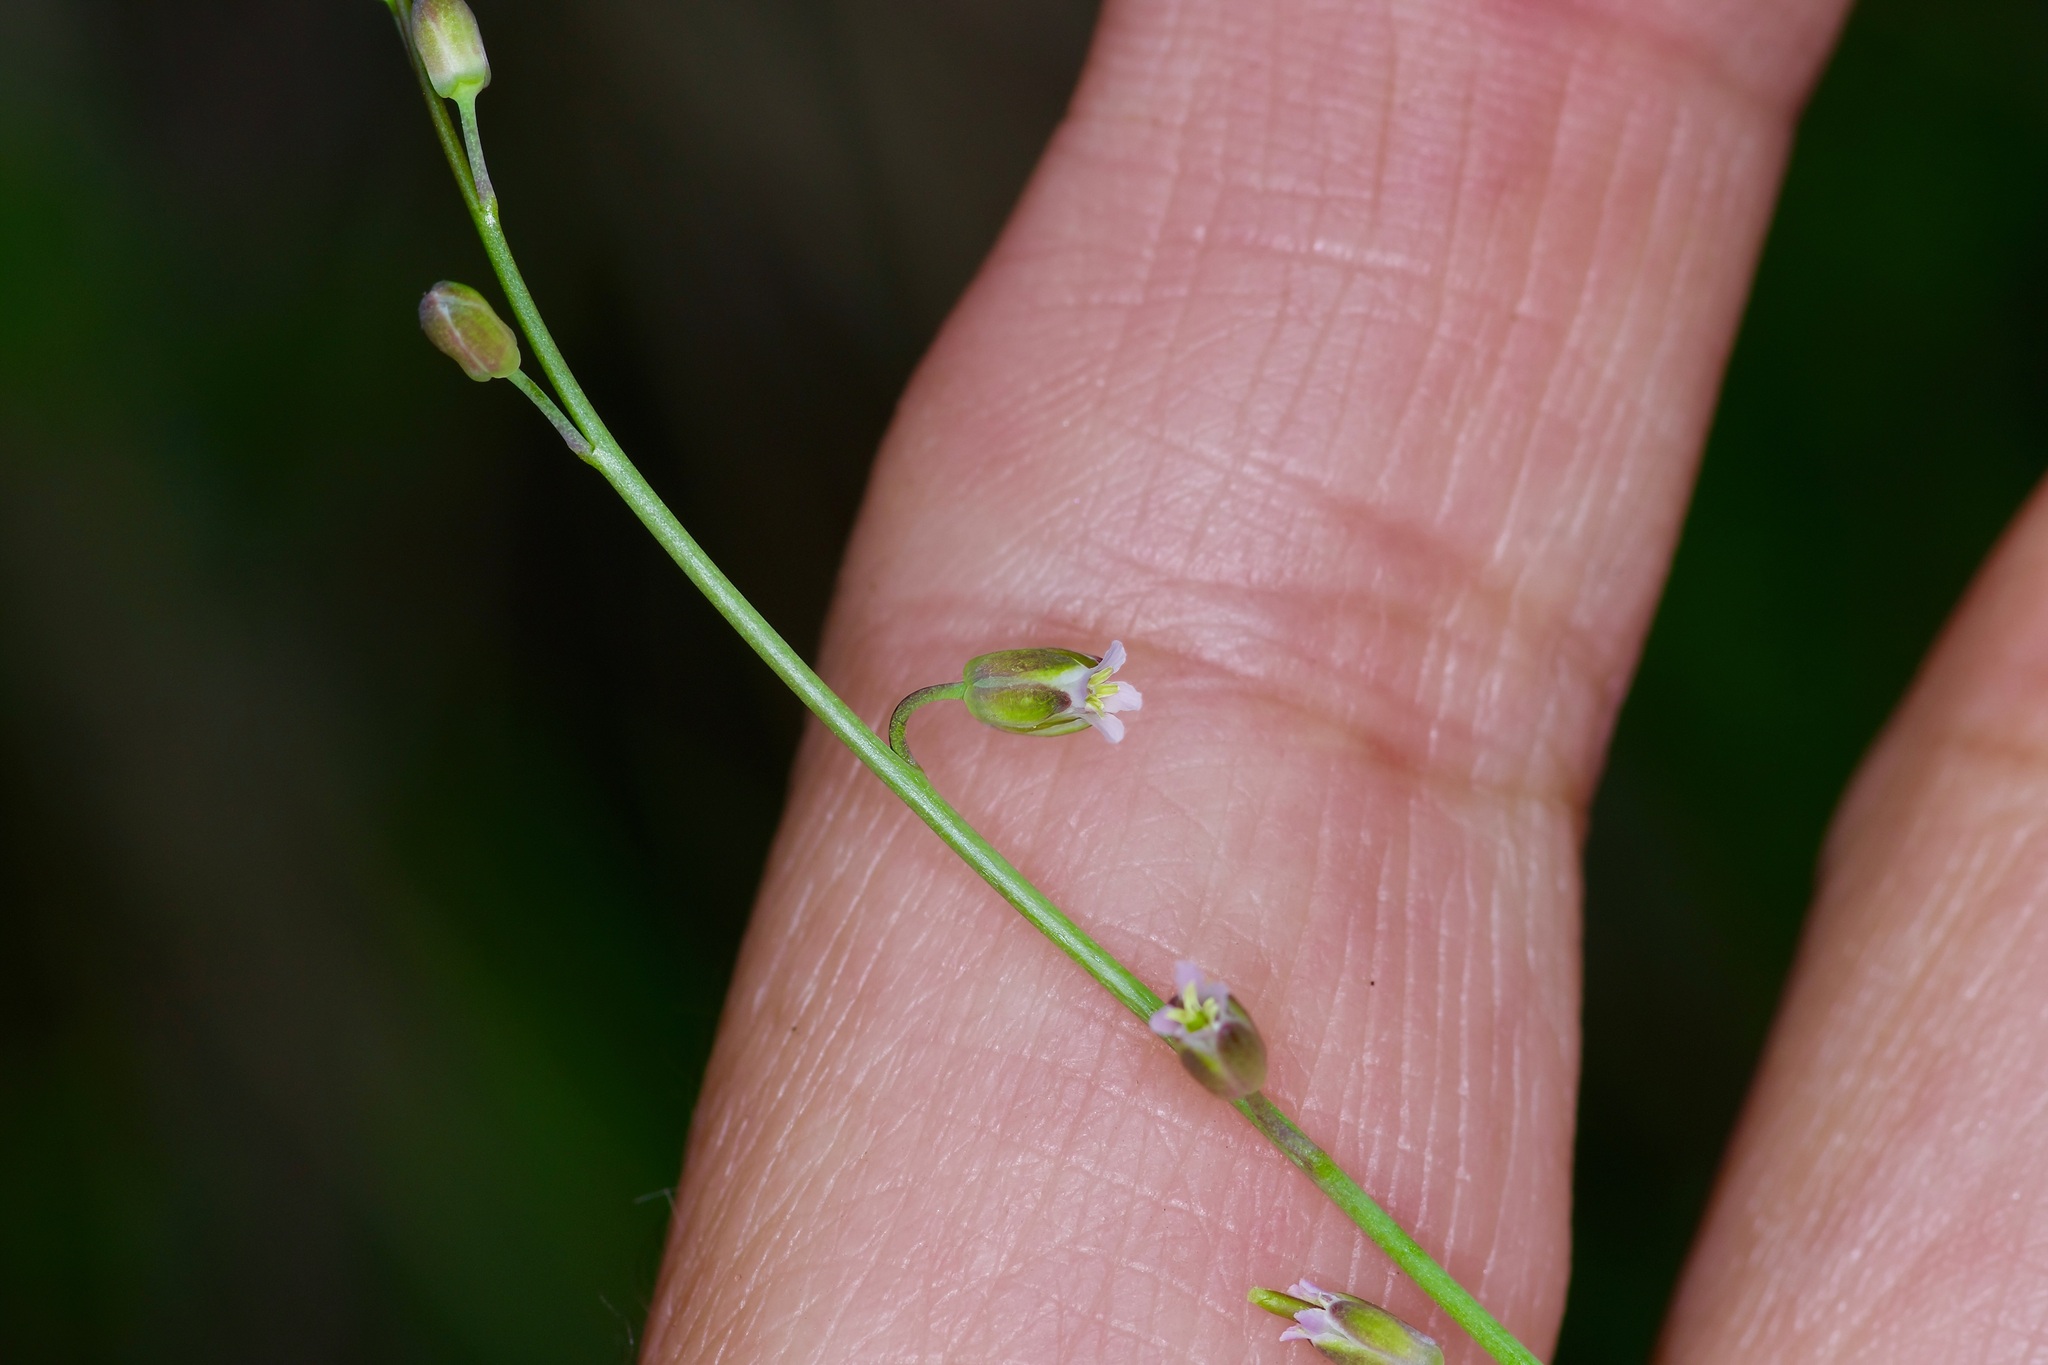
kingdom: Plantae
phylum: Tracheophyta
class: Magnoliopsida
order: Brassicales
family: Brassicaceae
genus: Pennellia
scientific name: Pennellia longifolia
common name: Longleaf mock thelypody
